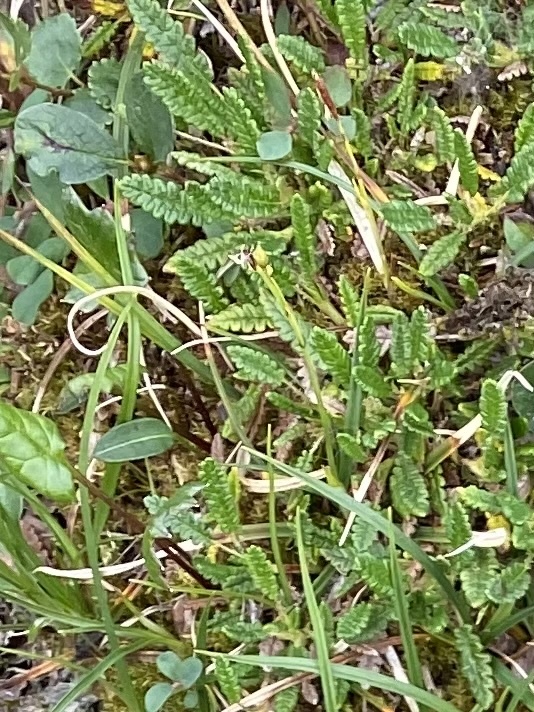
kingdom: Plantae
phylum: Tracheophyta
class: Magnoliopsida
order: Rosales
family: Rosaceae
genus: Dryas
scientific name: Dryas octopetala
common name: Eight-petal mountain-avens
